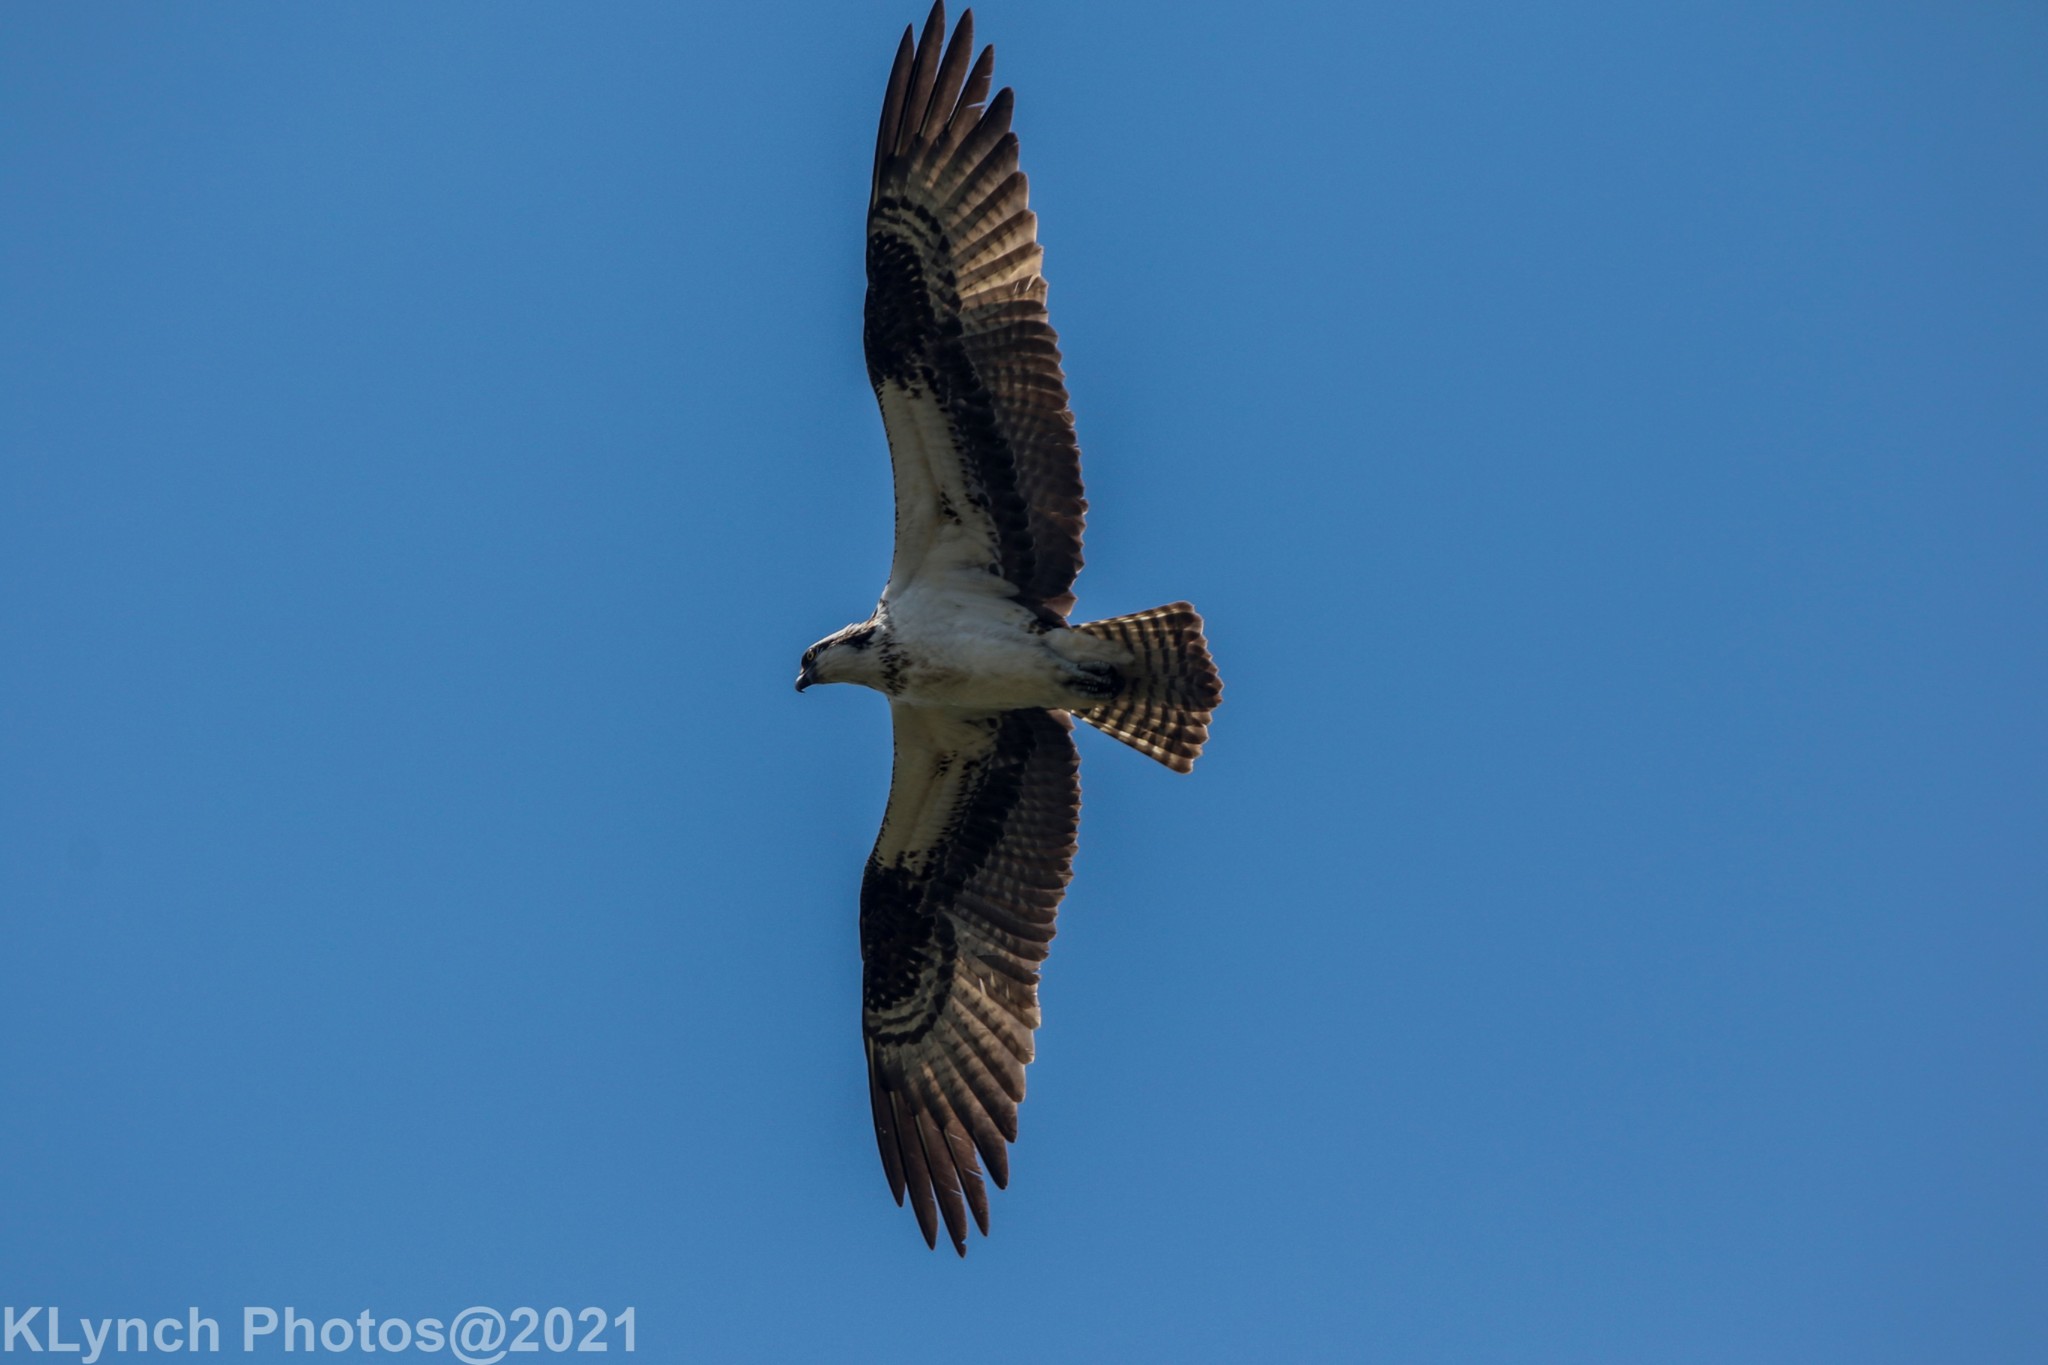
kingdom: Animalia
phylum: Chordata
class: Aves
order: Accipitriformes
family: Pandionidae
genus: Pandion
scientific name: Pandion haliaetus
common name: Osprey
